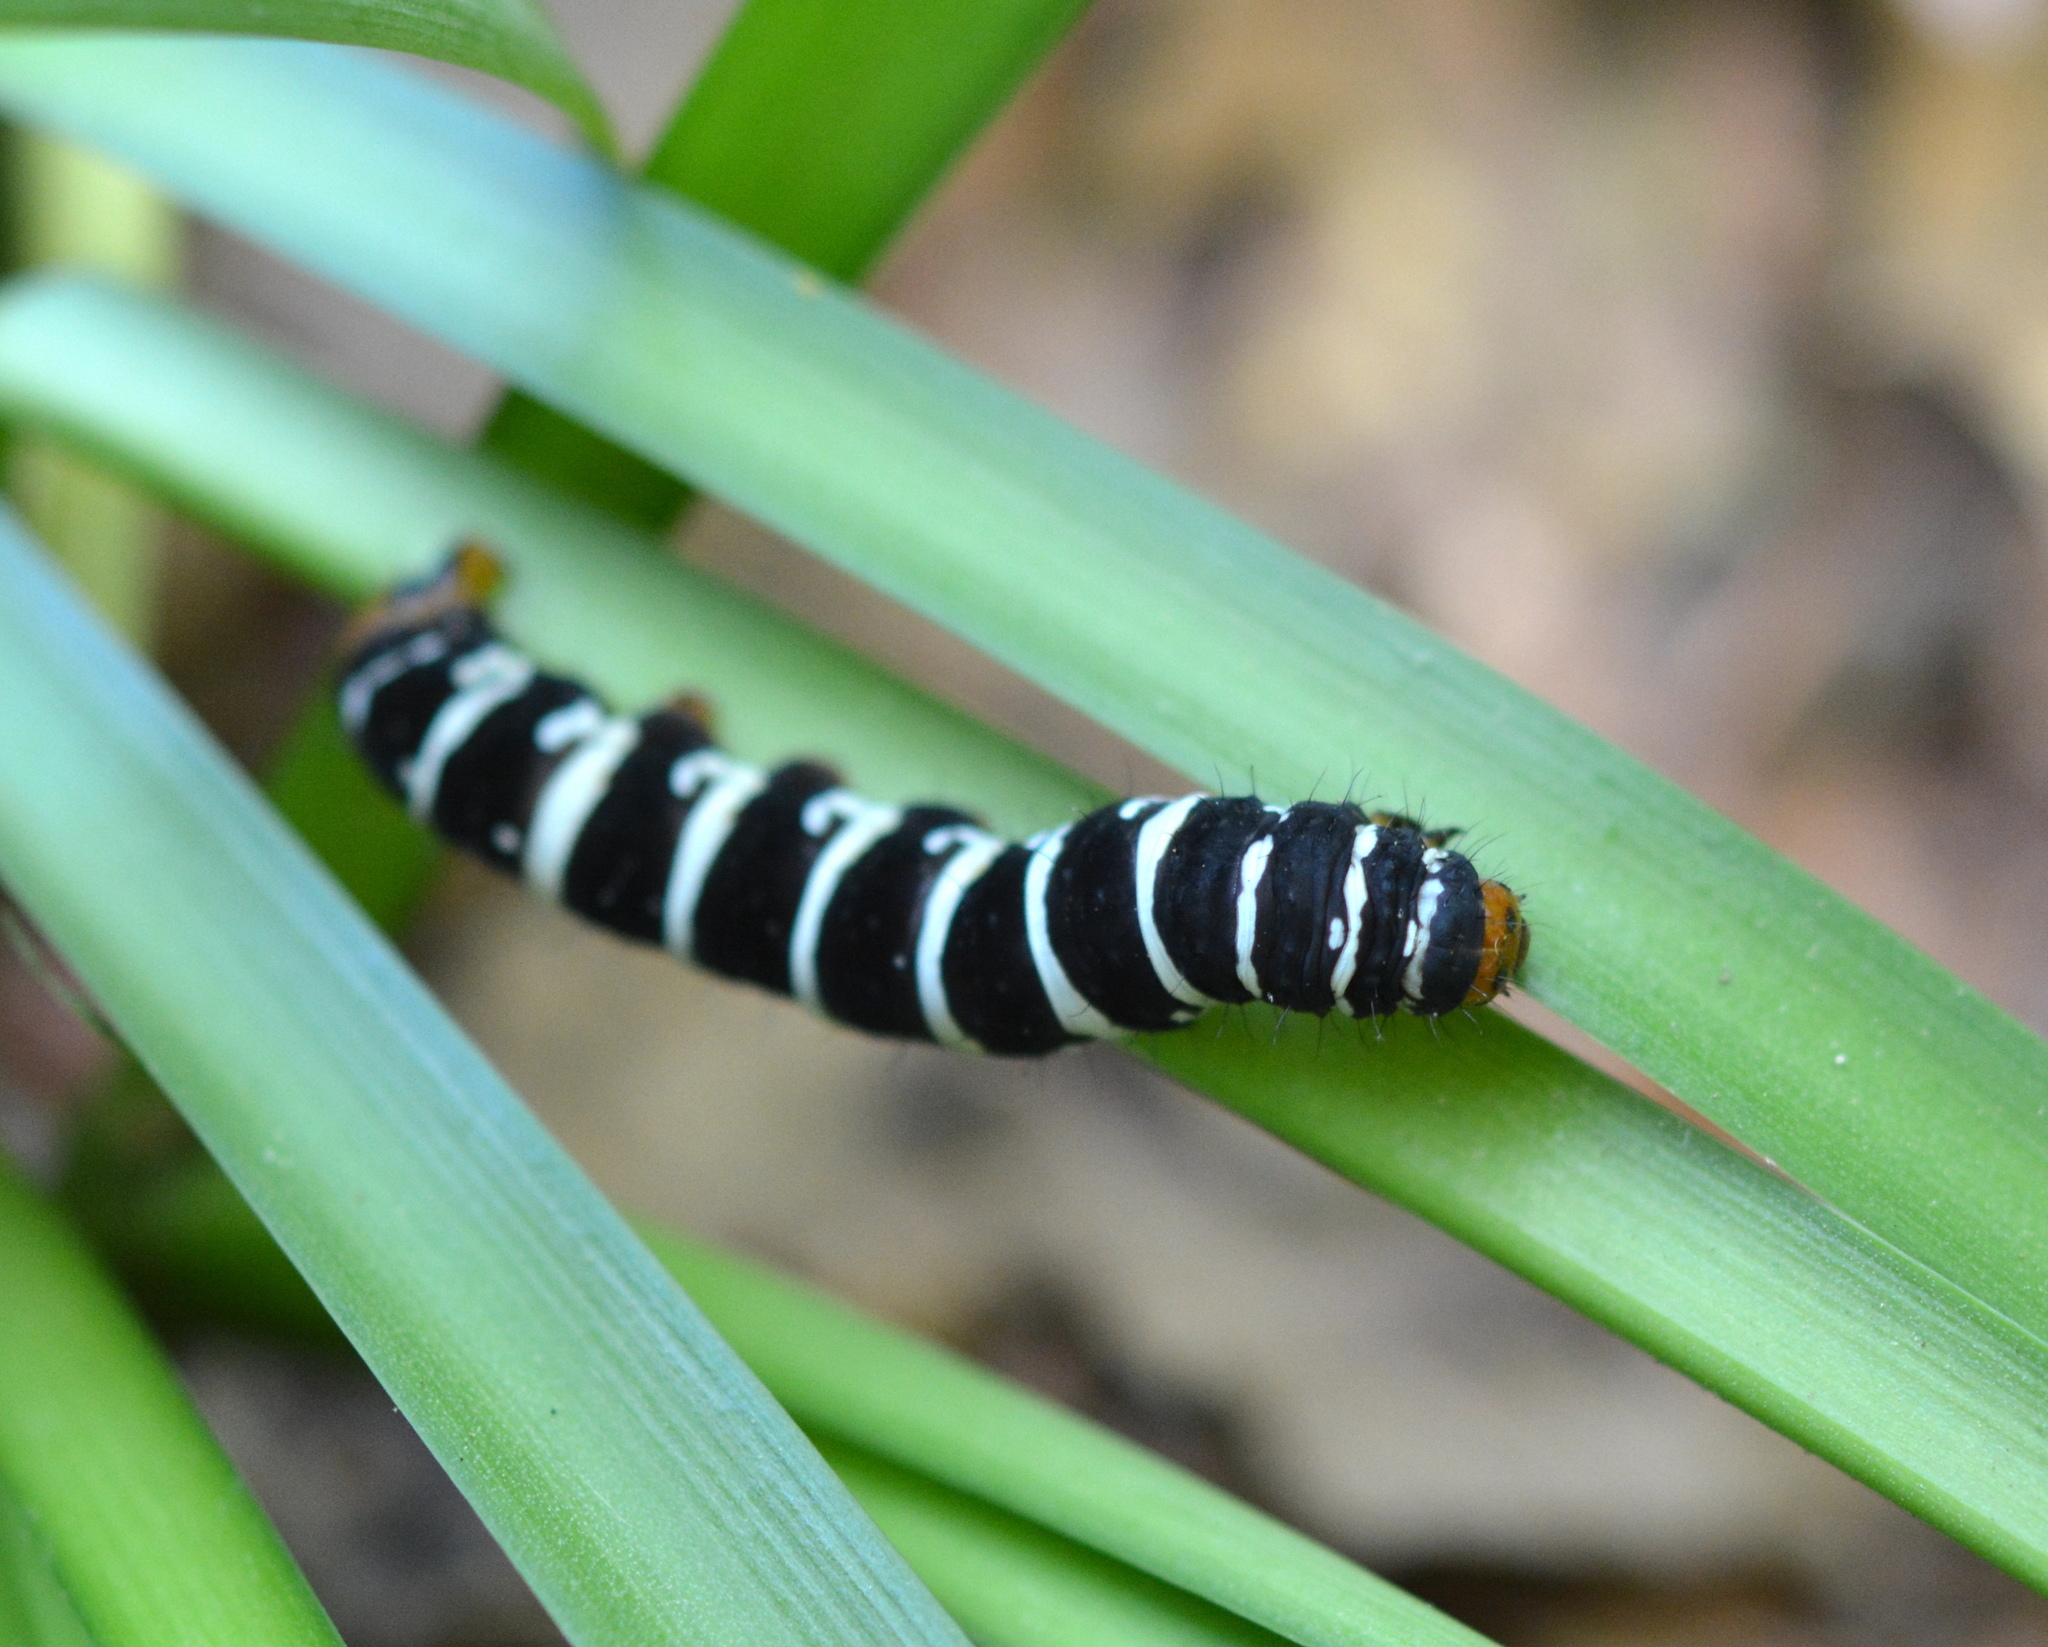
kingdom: Animalia
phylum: Arthropoda
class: Insecta
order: Lepidoptera
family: Noctuidae
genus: Xanthopastis
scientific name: Xanthopastis regnatrix
